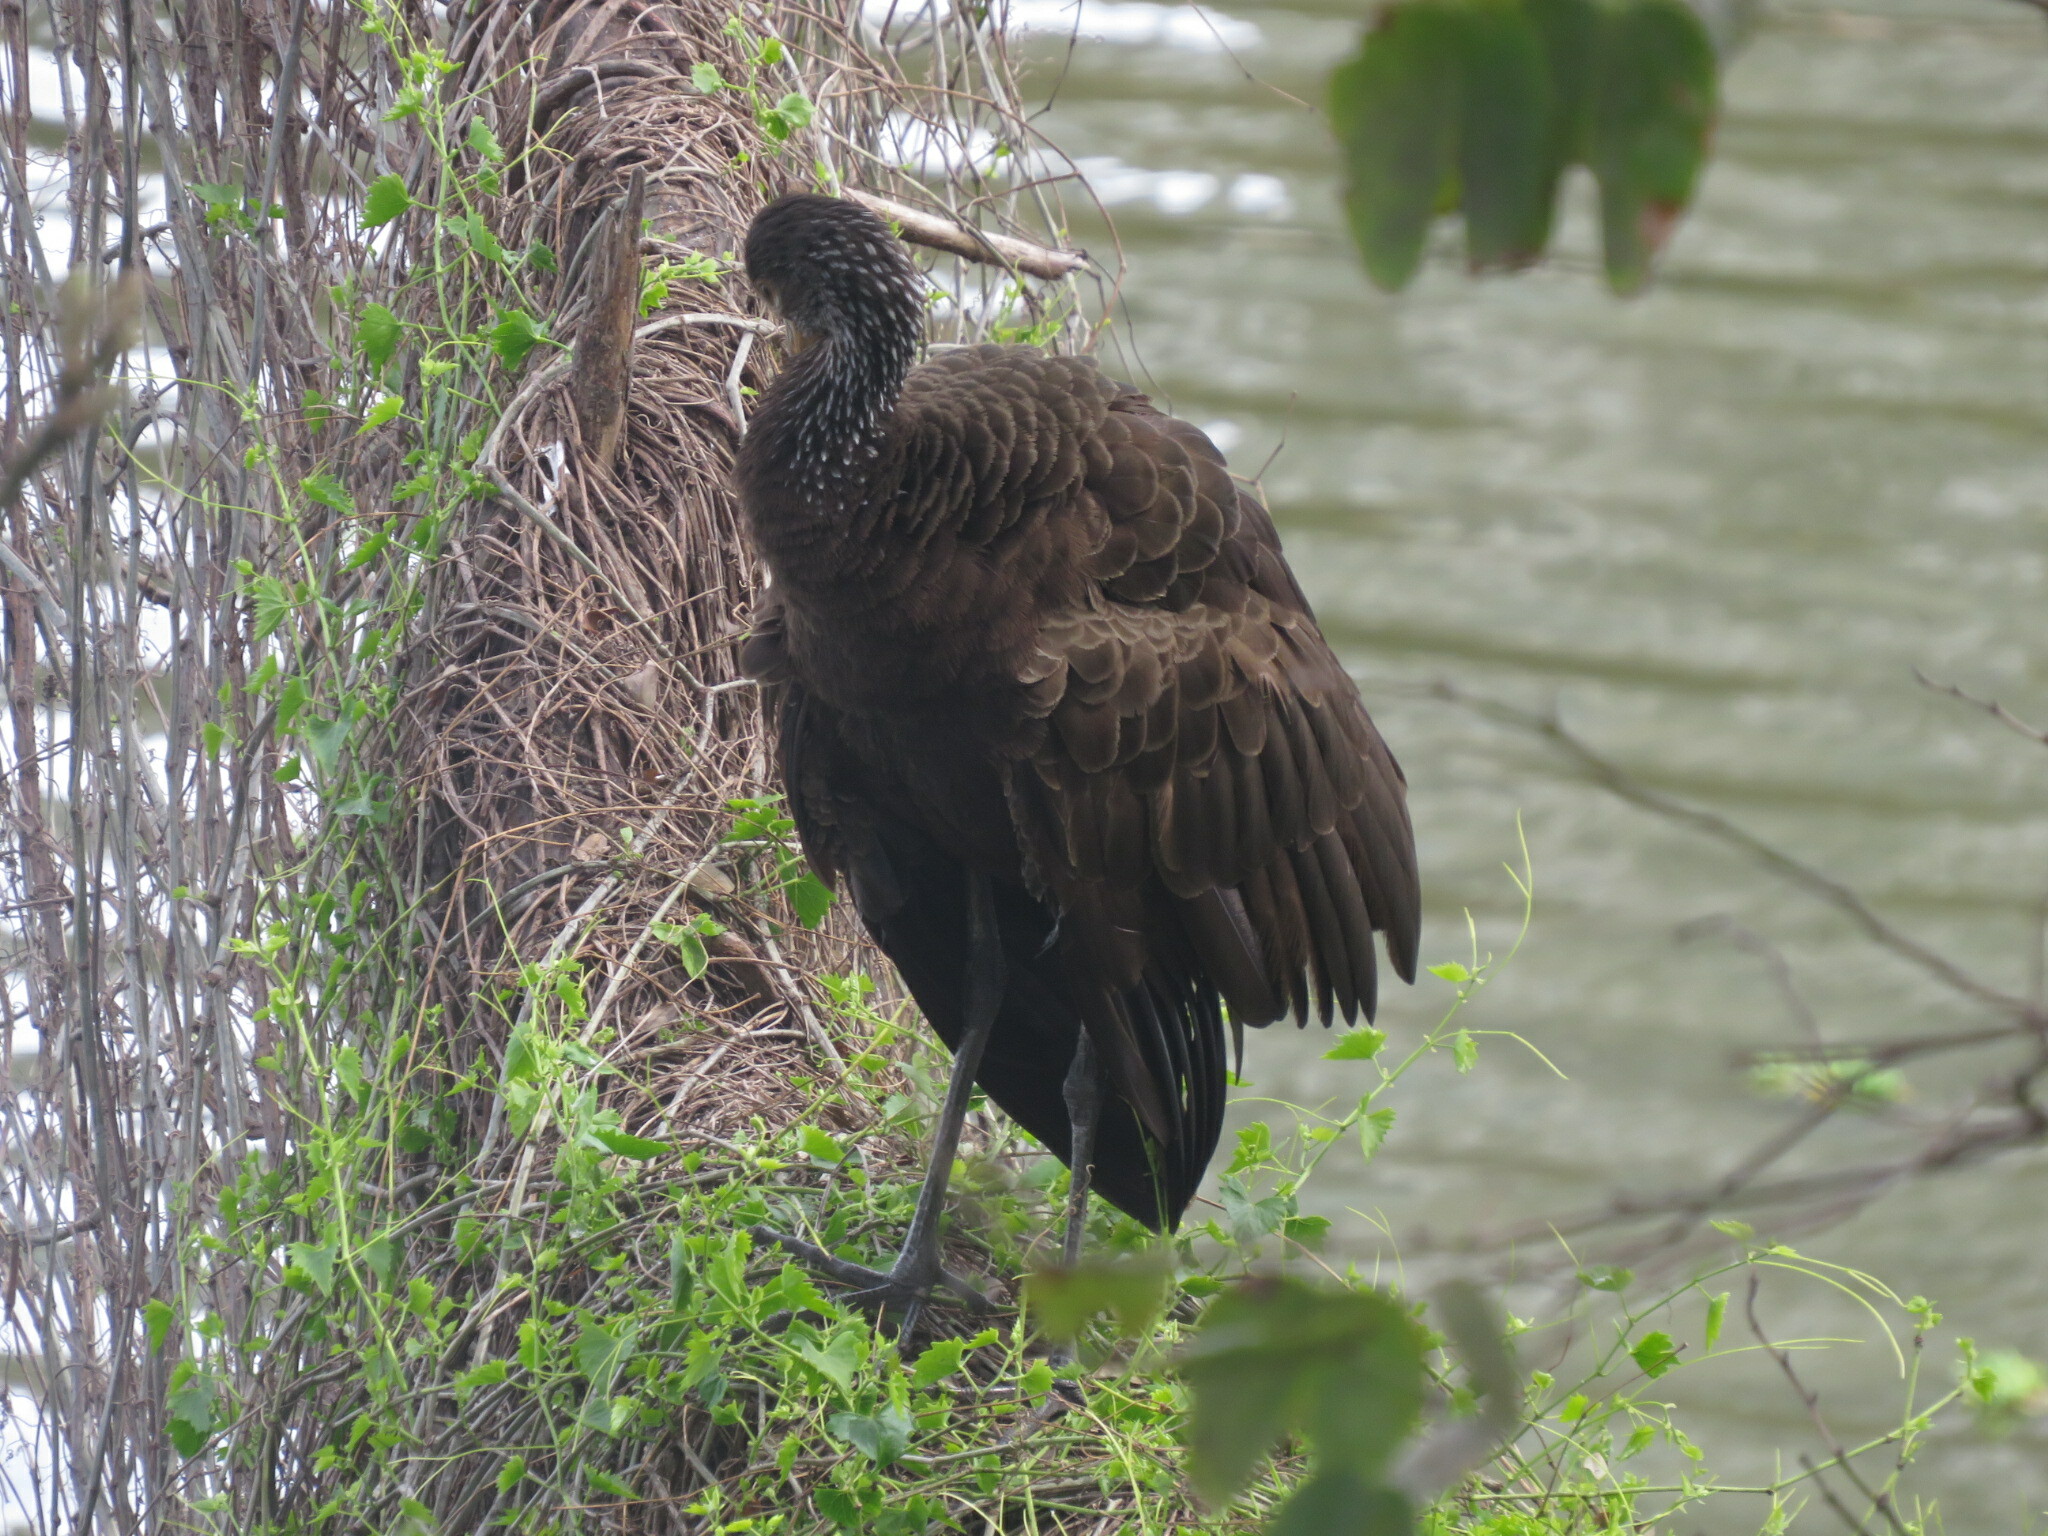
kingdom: Animalia
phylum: Chordata
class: Aves
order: Gruiformes
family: Aramidae
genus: Aramus
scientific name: Aramus guarauna
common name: Limpkin
